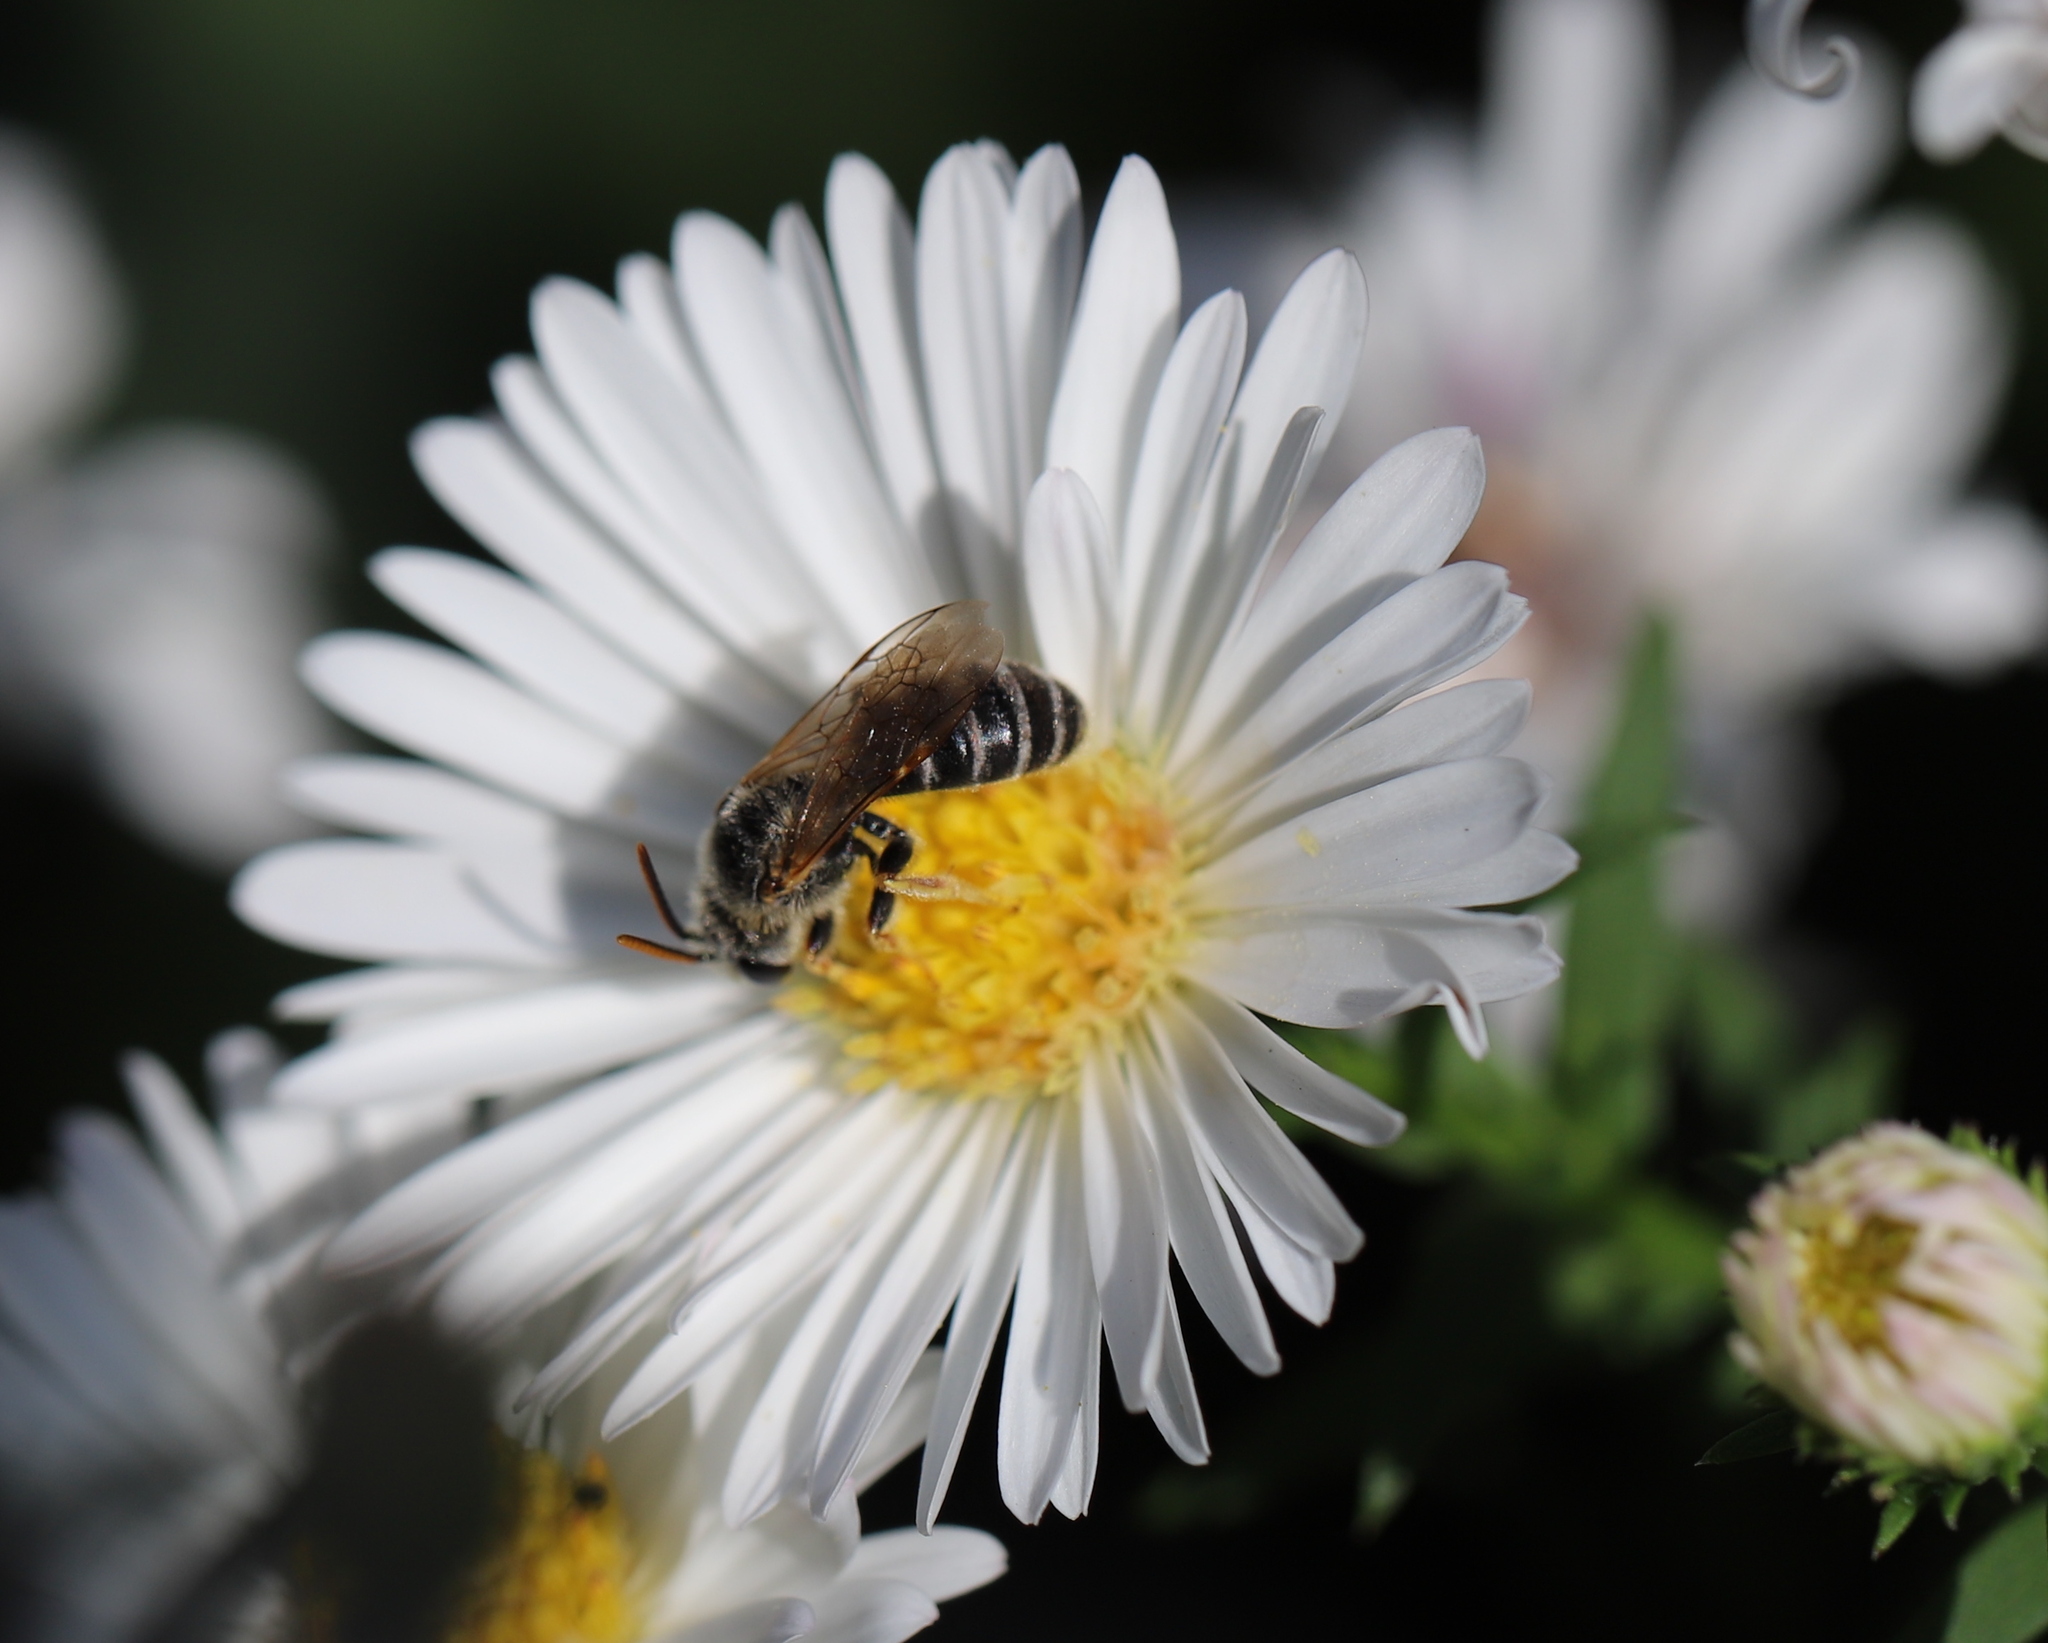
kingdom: Animalia
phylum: Arthropoda
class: Insecta
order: Hymenoptera
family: Halictidae
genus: Halictus
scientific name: Halictus ligatus
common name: Ligated furrow bee
